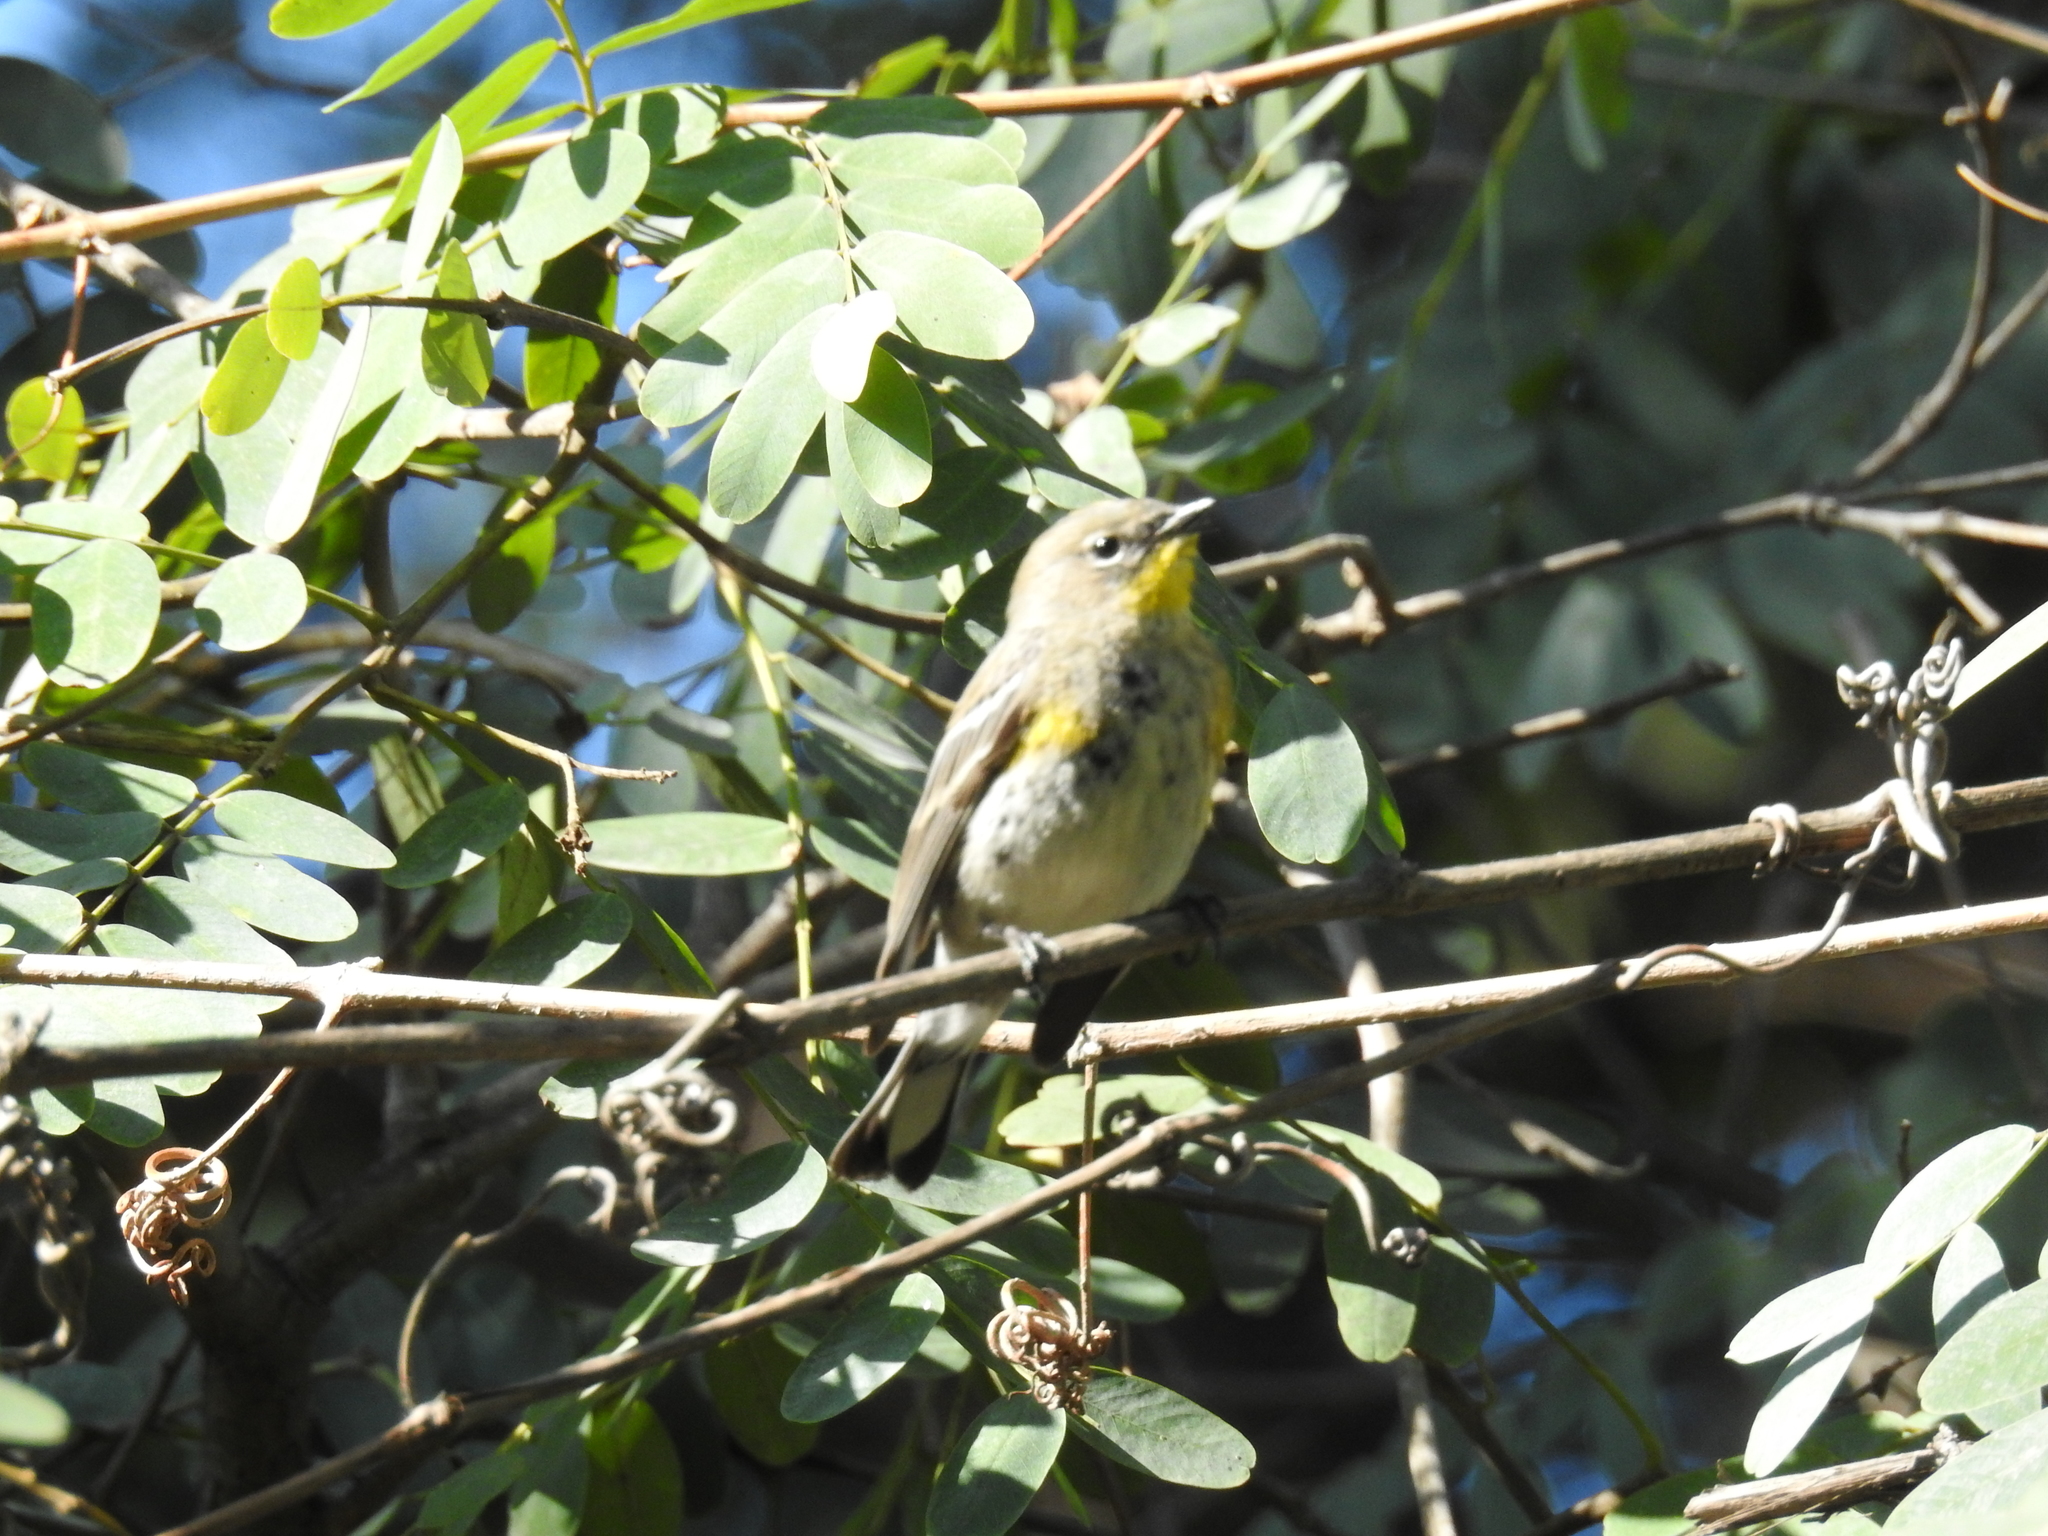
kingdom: Animalia
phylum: Chordata
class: Aves
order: Passeriformes
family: Parulidae
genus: Setophaga
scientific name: Setophaga coronata
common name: Myrtle warbler
